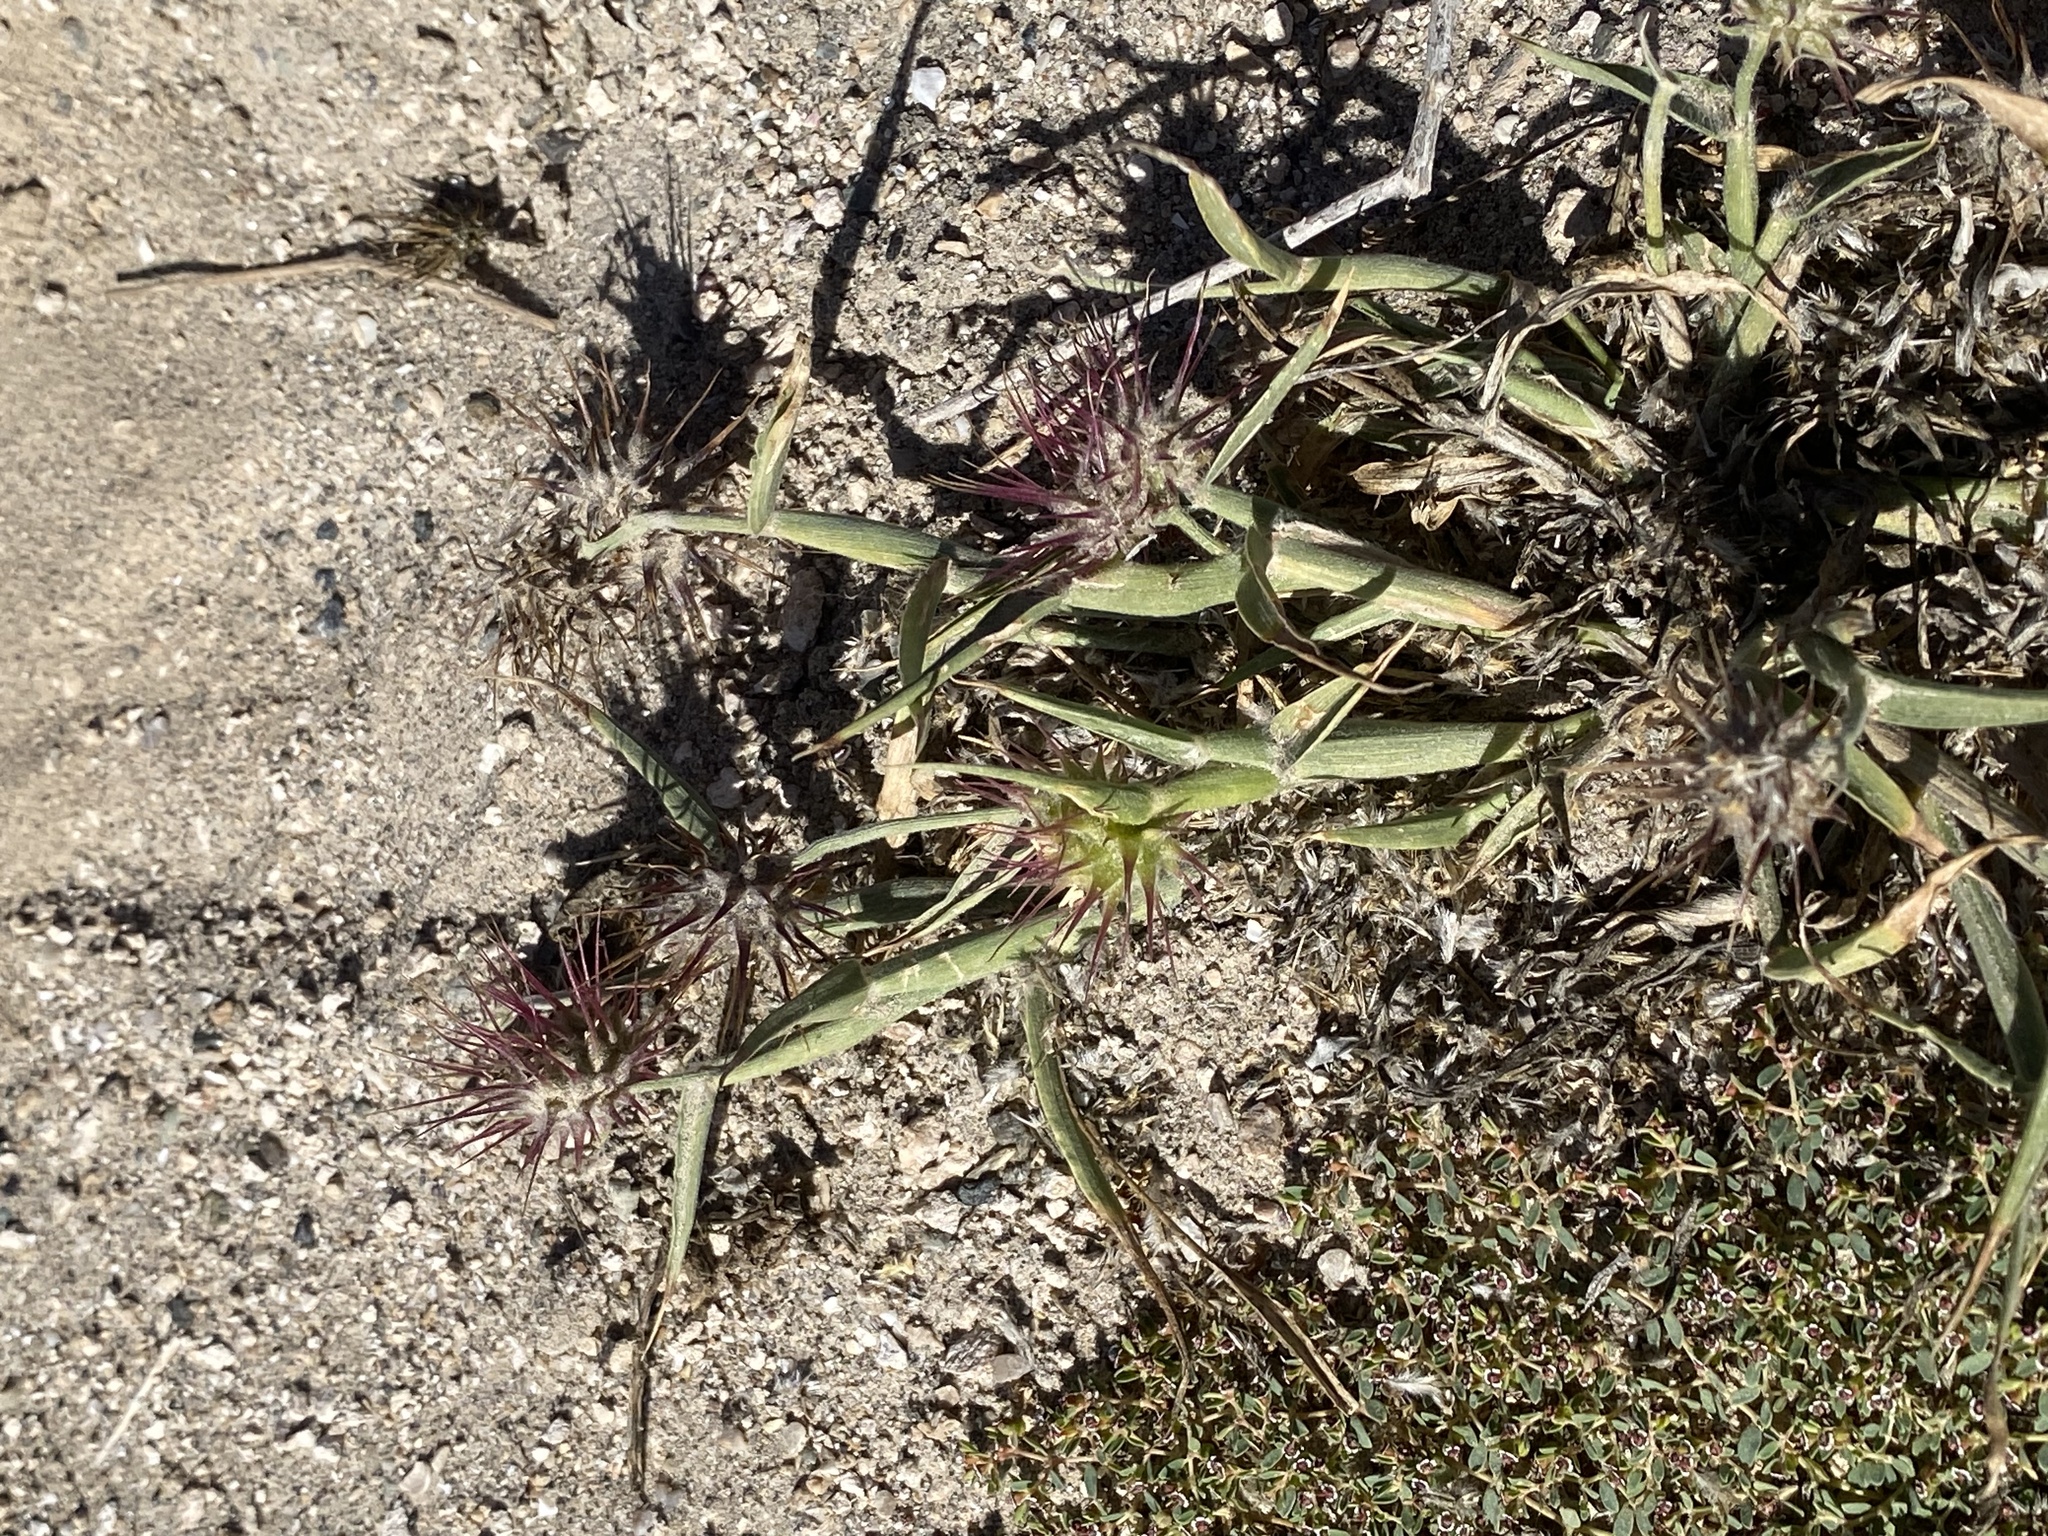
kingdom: Plantae
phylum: Tracheophyta
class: Liliopsida
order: Poales
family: Poaceae
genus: Cenchrus
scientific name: Cenchrus palmeri
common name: Giant sandbur
